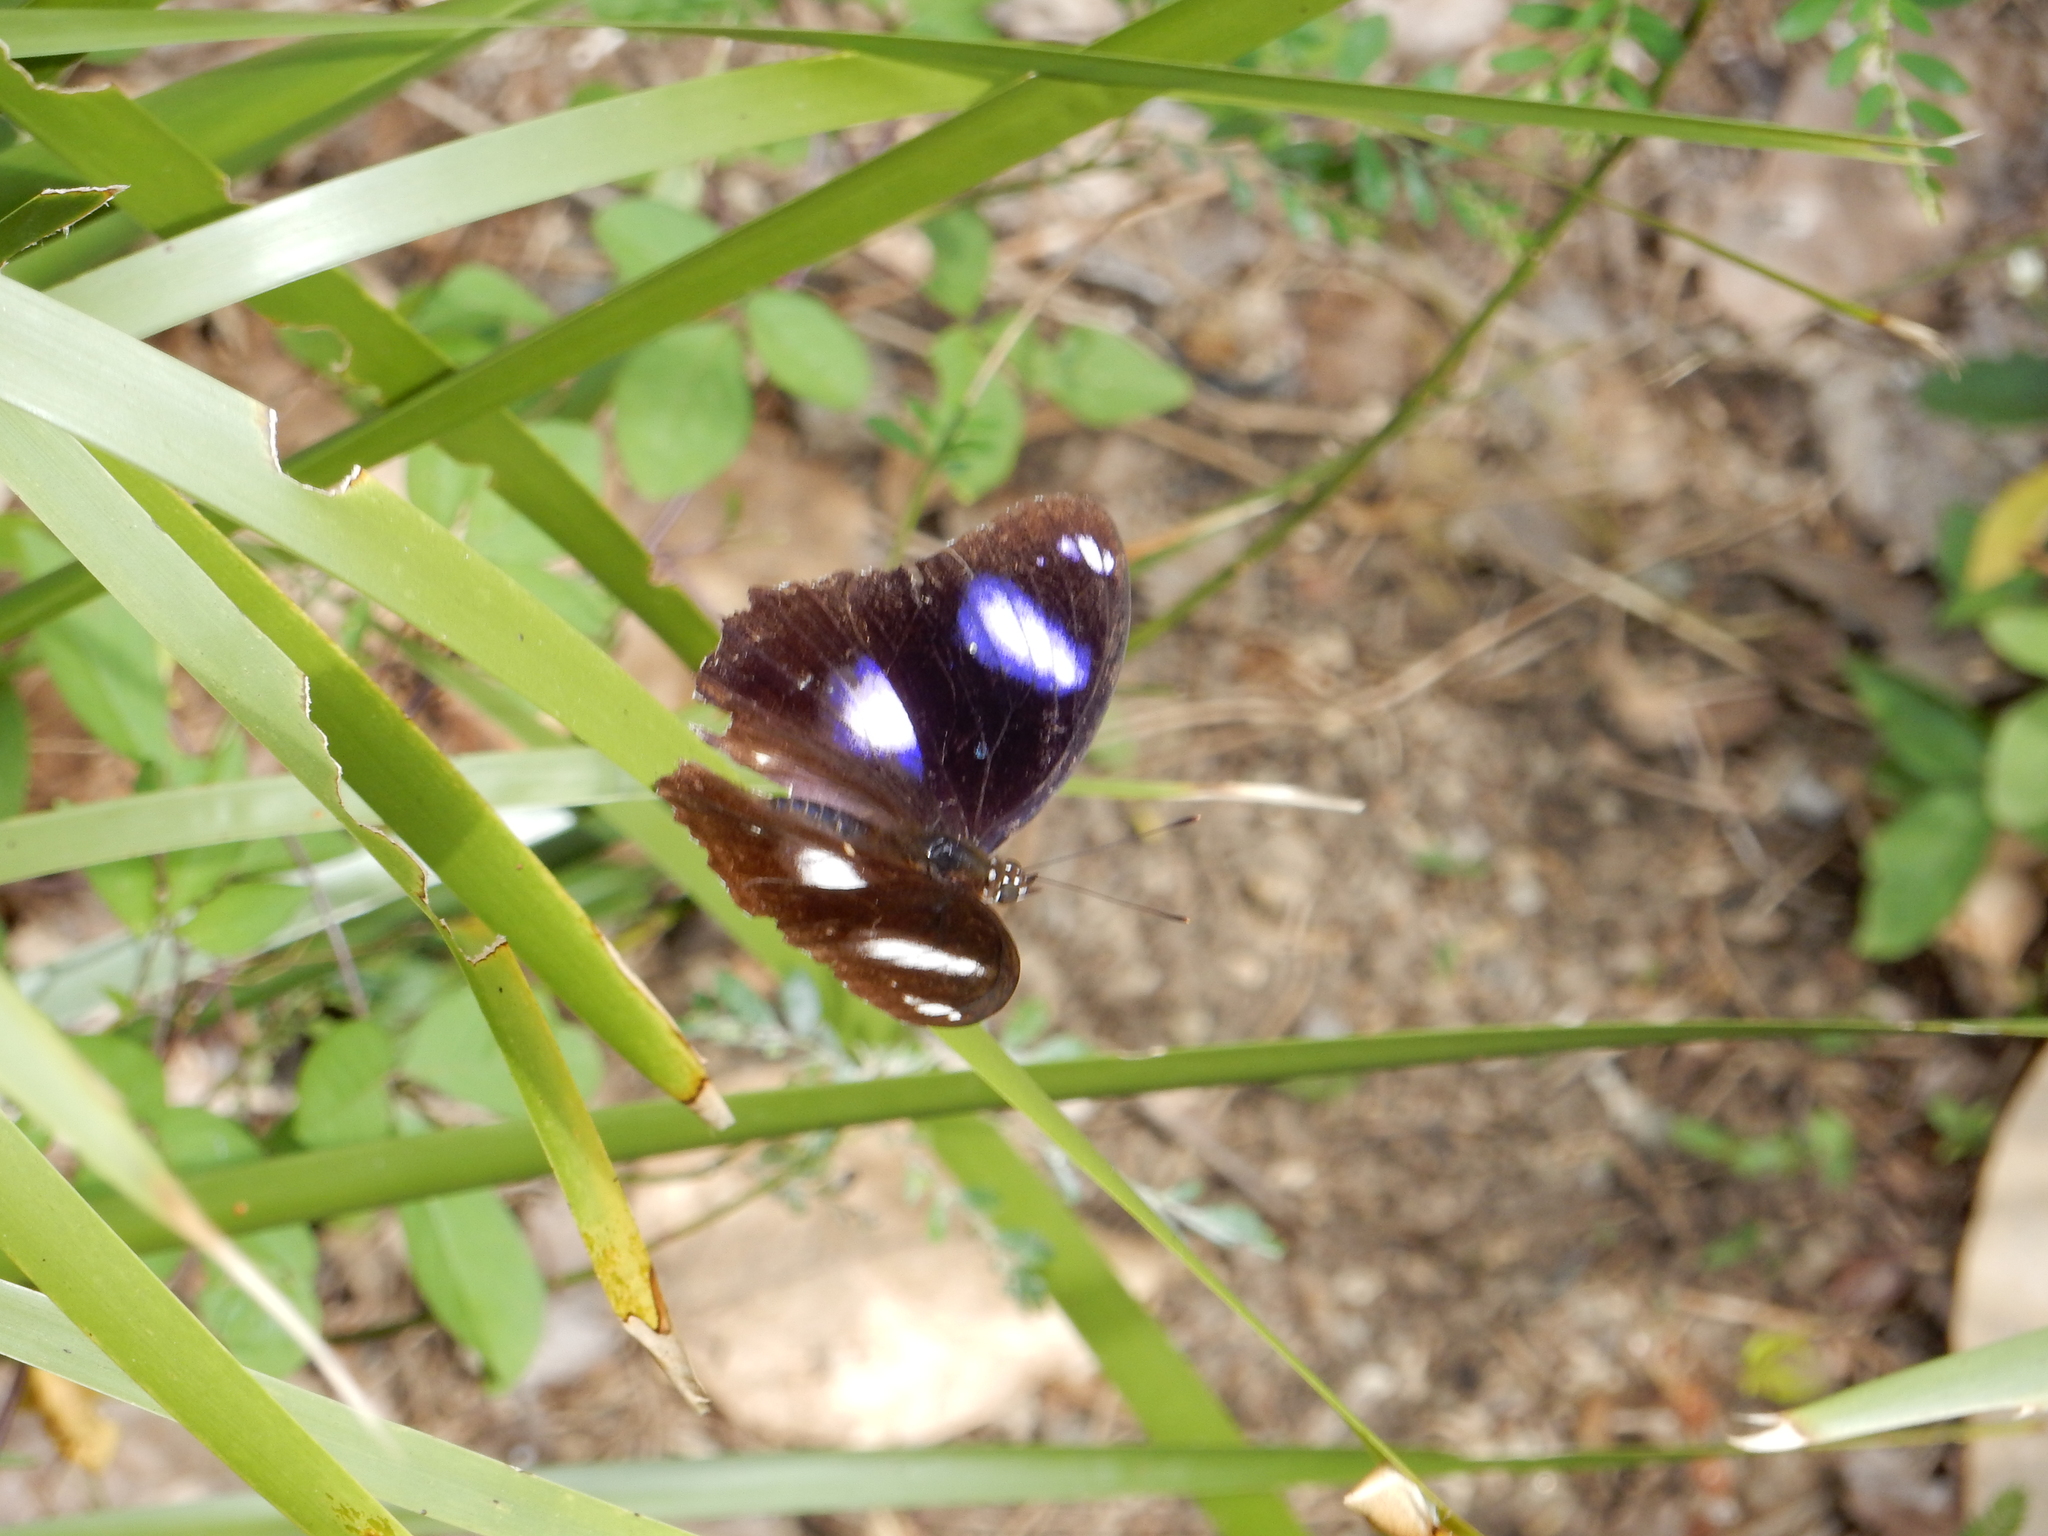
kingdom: Animalia
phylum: Arthropoda
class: Insecta
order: Lepidoptera
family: Nymphalidae
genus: Hypolimnas
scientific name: Hypolimnas bolina
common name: Great eggfly
